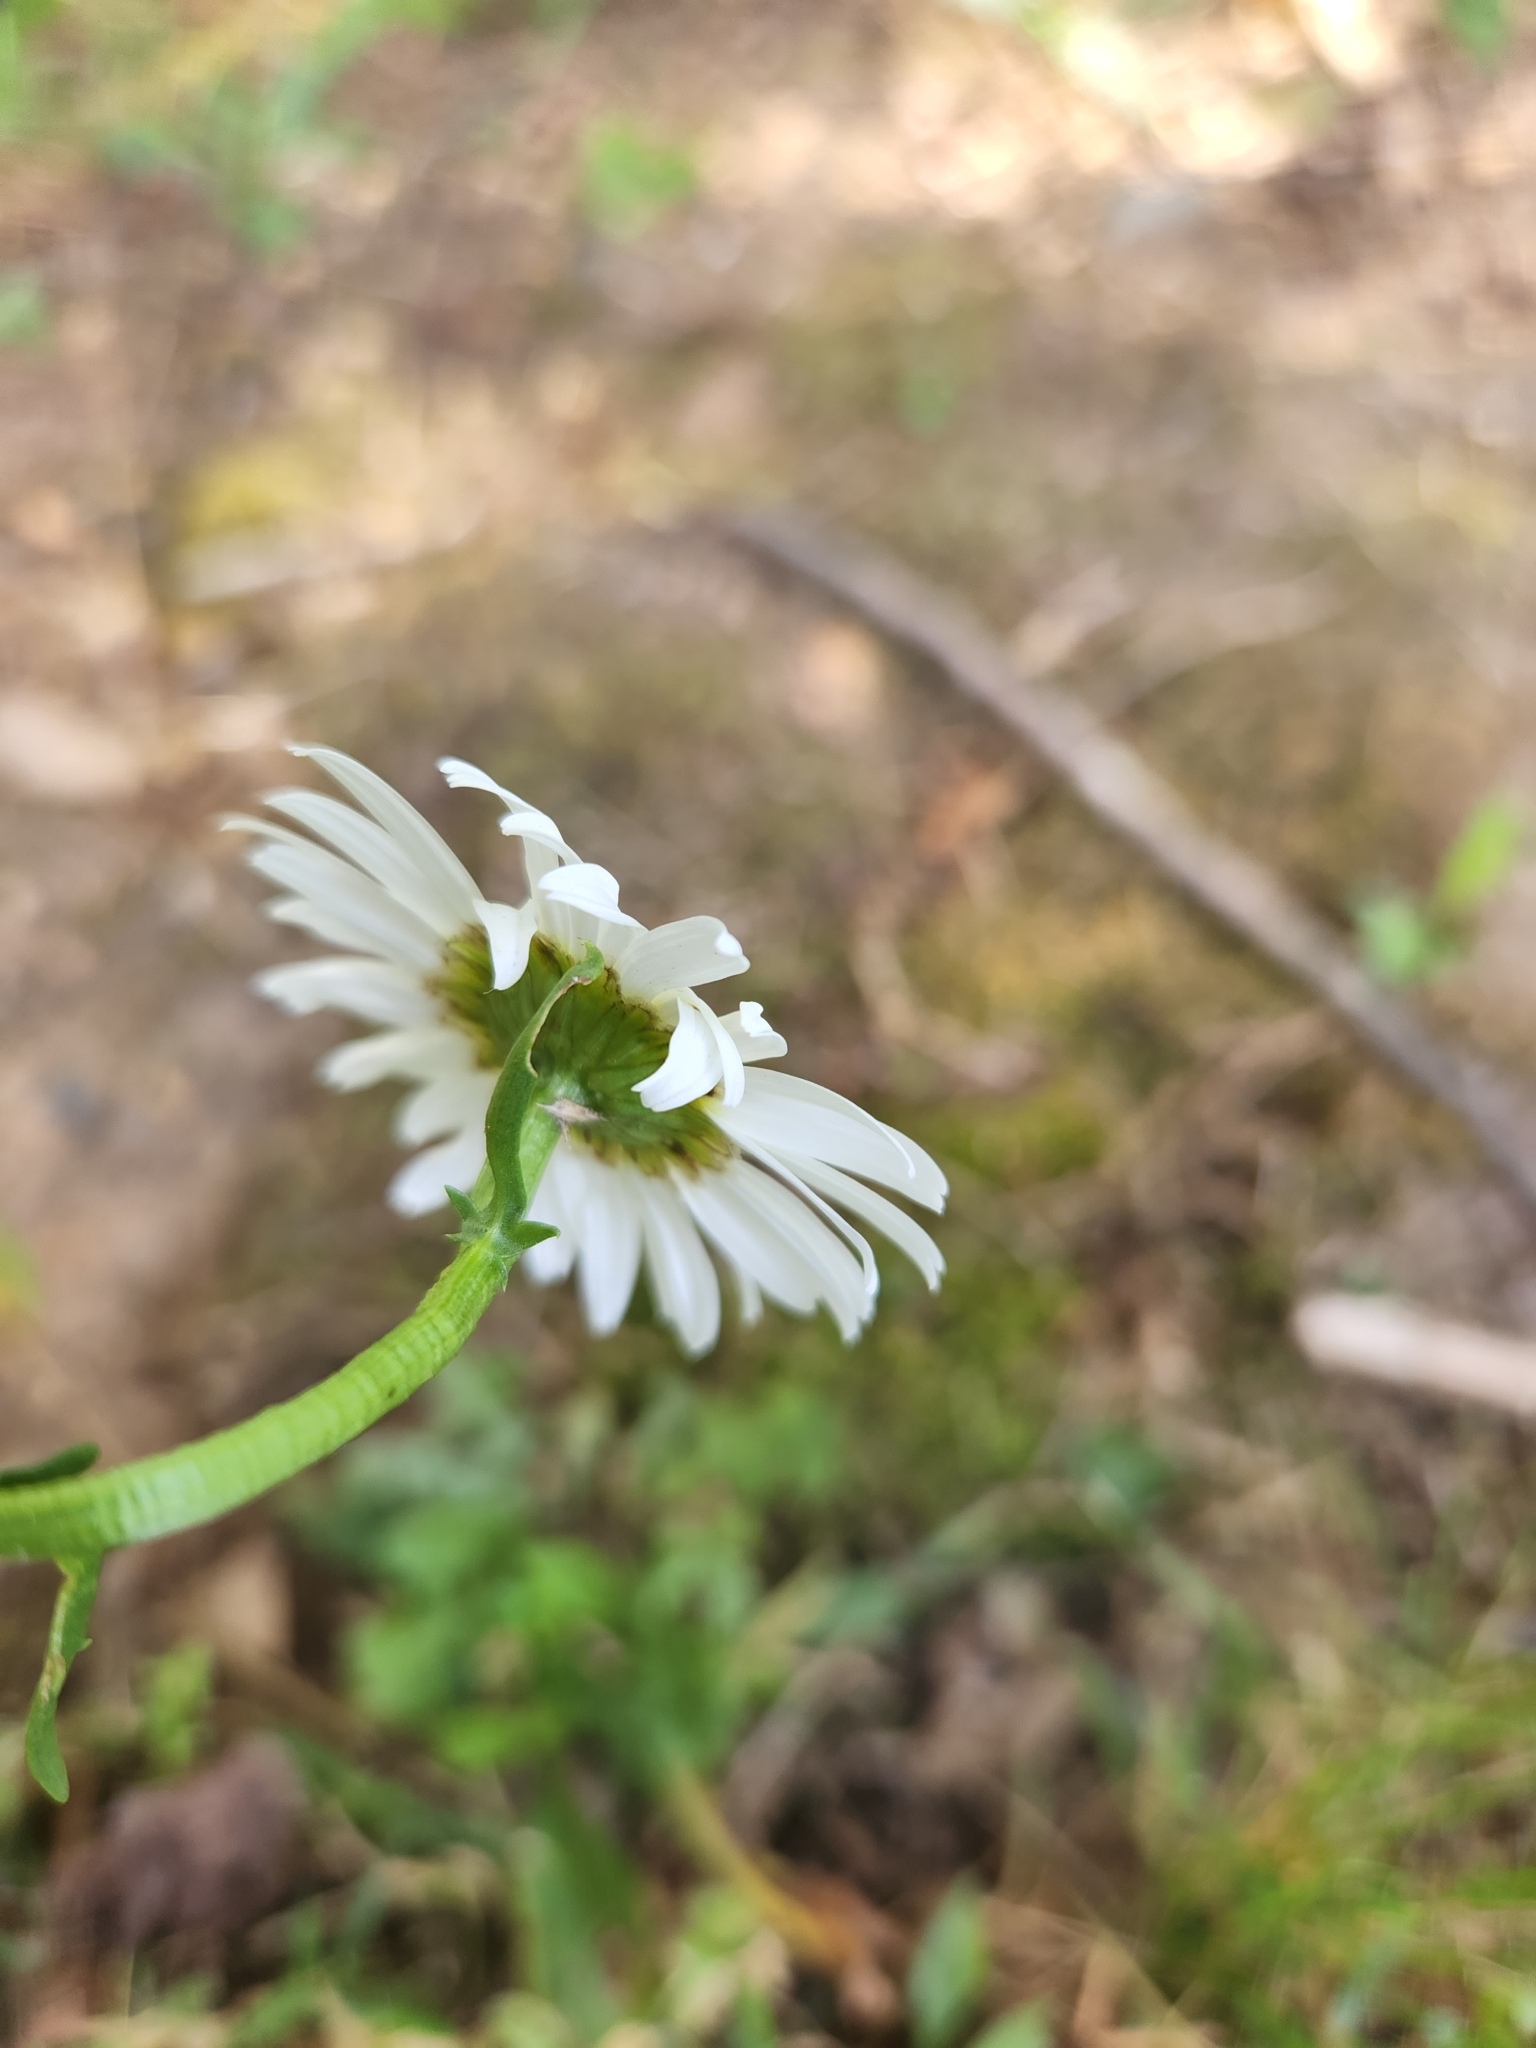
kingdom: Plantae
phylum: Tracheophyta
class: Magnoliopsida
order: Asterales
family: Asteraceae
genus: Leucanthemum
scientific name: Leucanthemum vulgare
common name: Oxeye daisy
